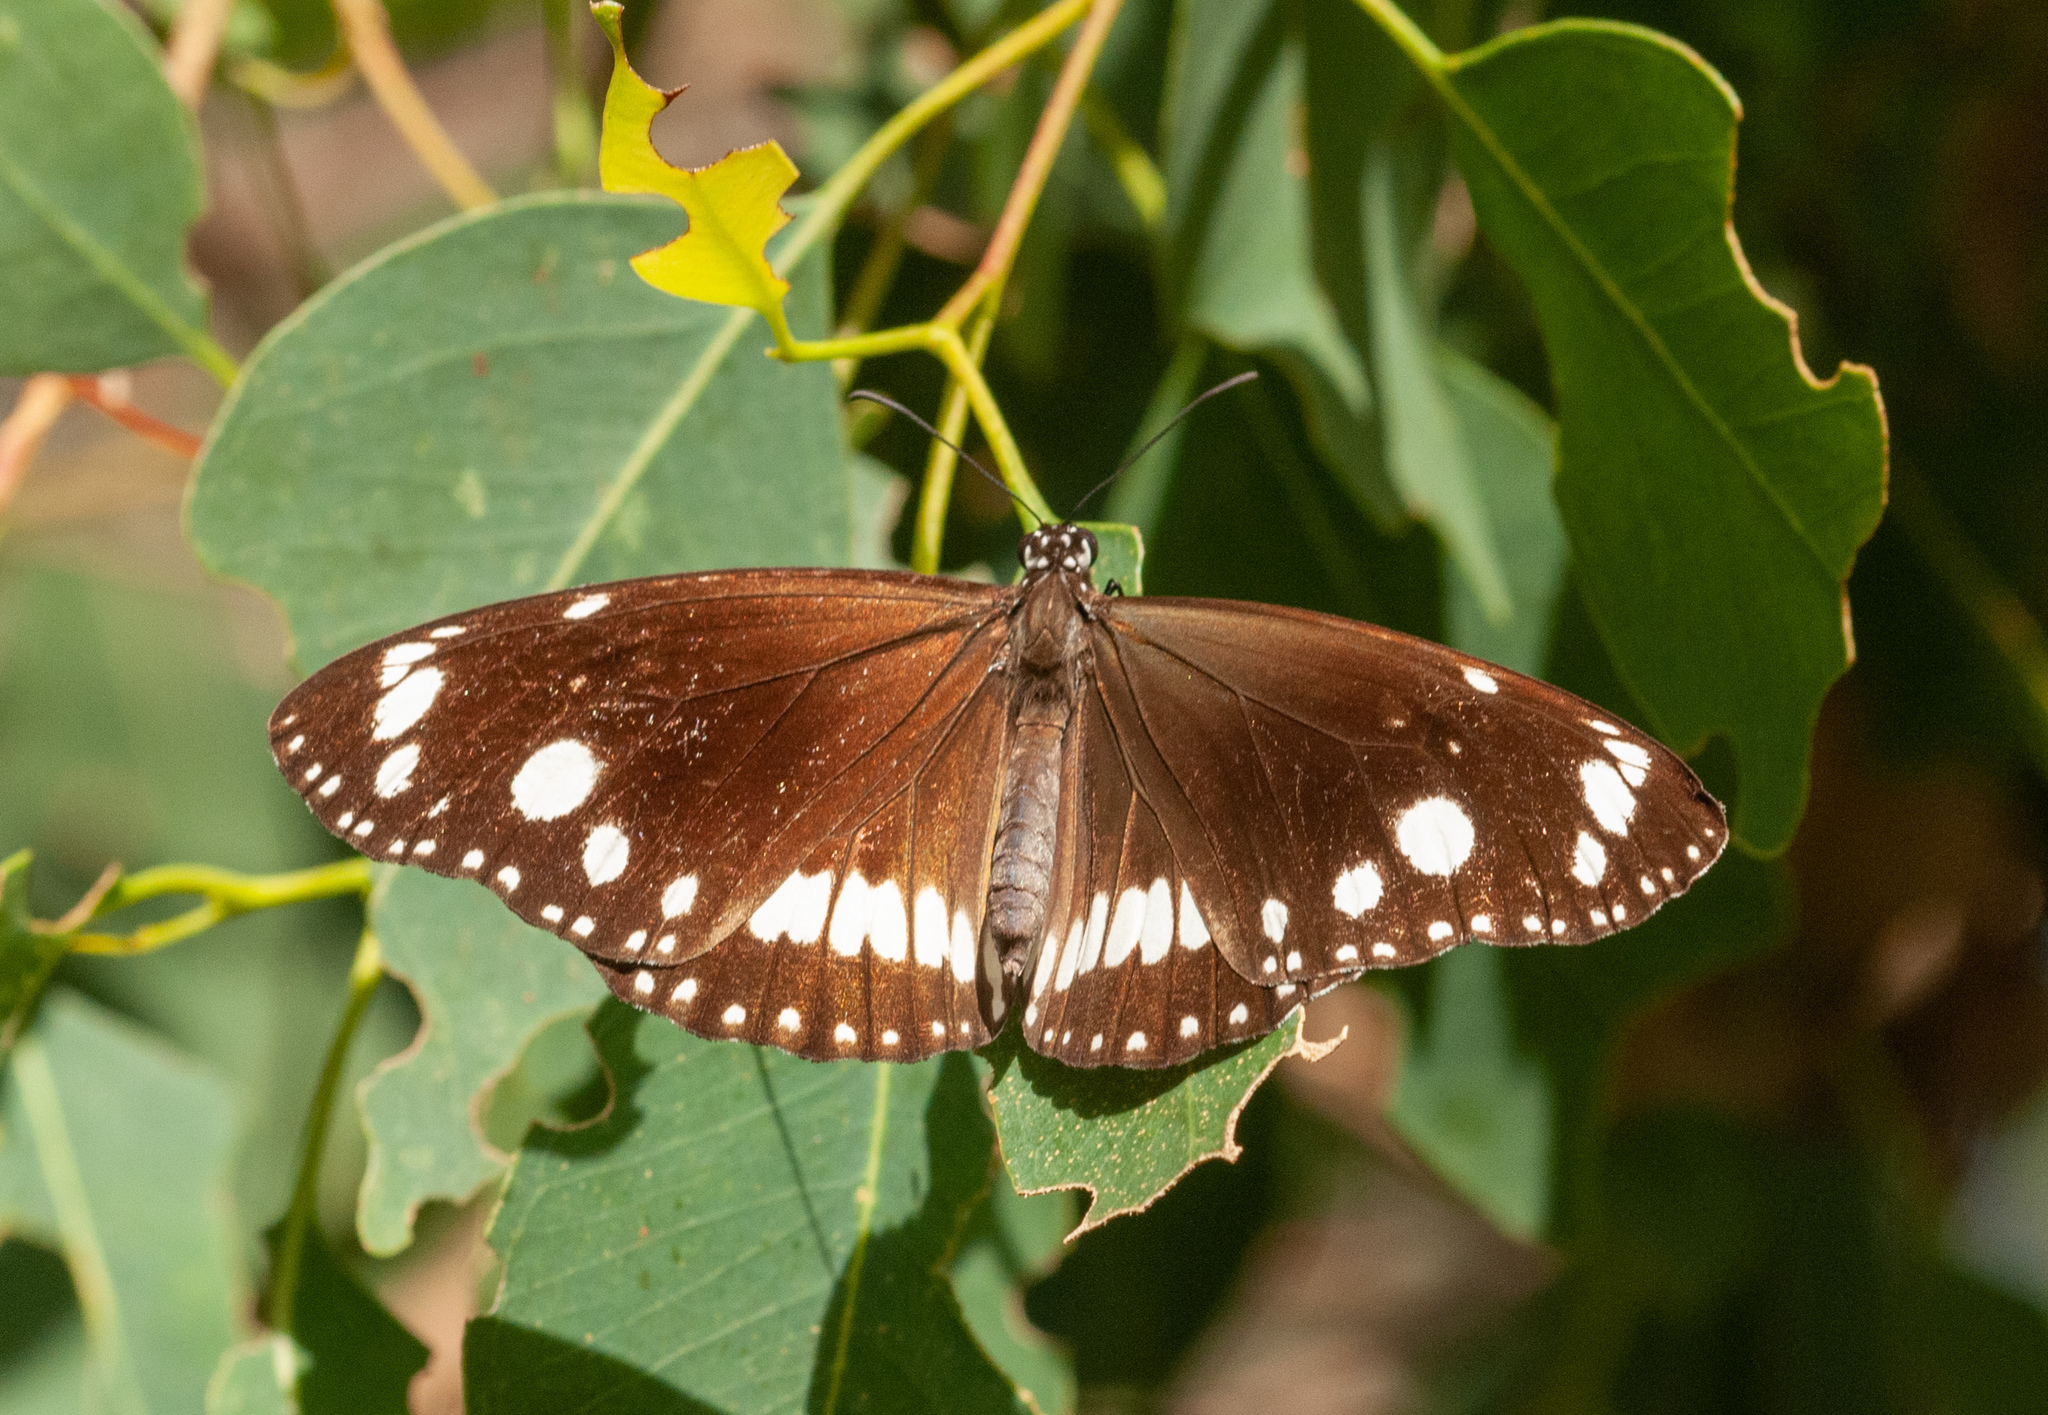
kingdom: Animalia
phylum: Arthropoda
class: Insecta
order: Lepidoptera
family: Nymphalidae
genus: Euploea
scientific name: Euploea core
